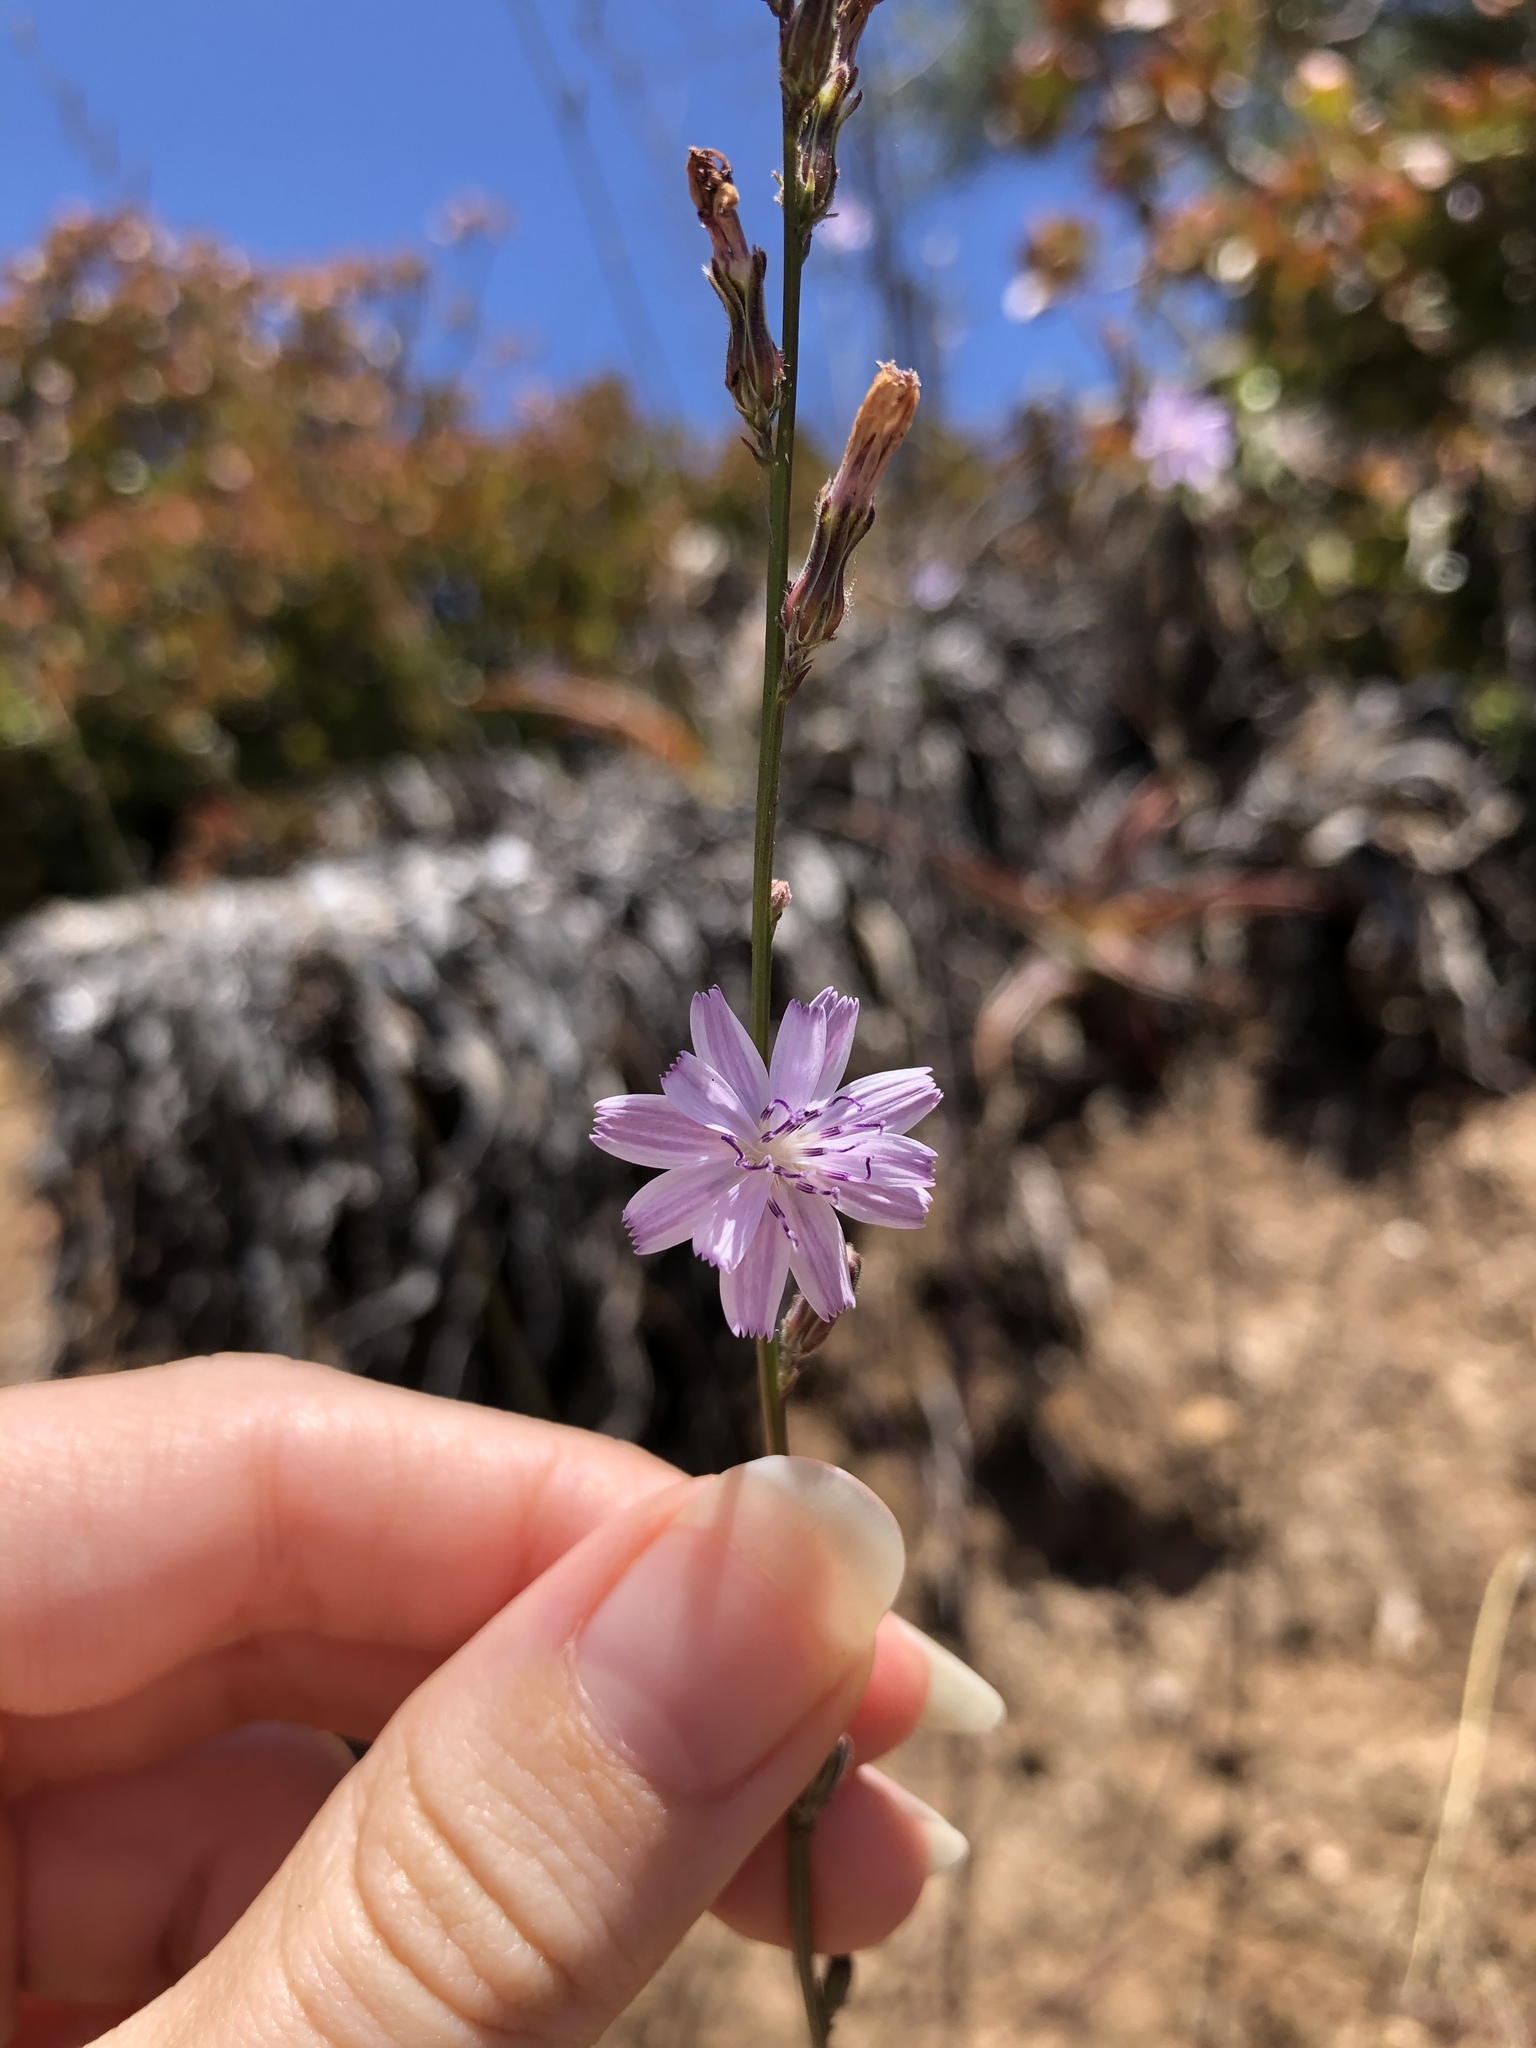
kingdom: Plantae
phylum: Tracheophyta
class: Magnoliopsida
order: Asterales
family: Asteraceae
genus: Stephanomeria
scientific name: Stephanomeria diegensis
